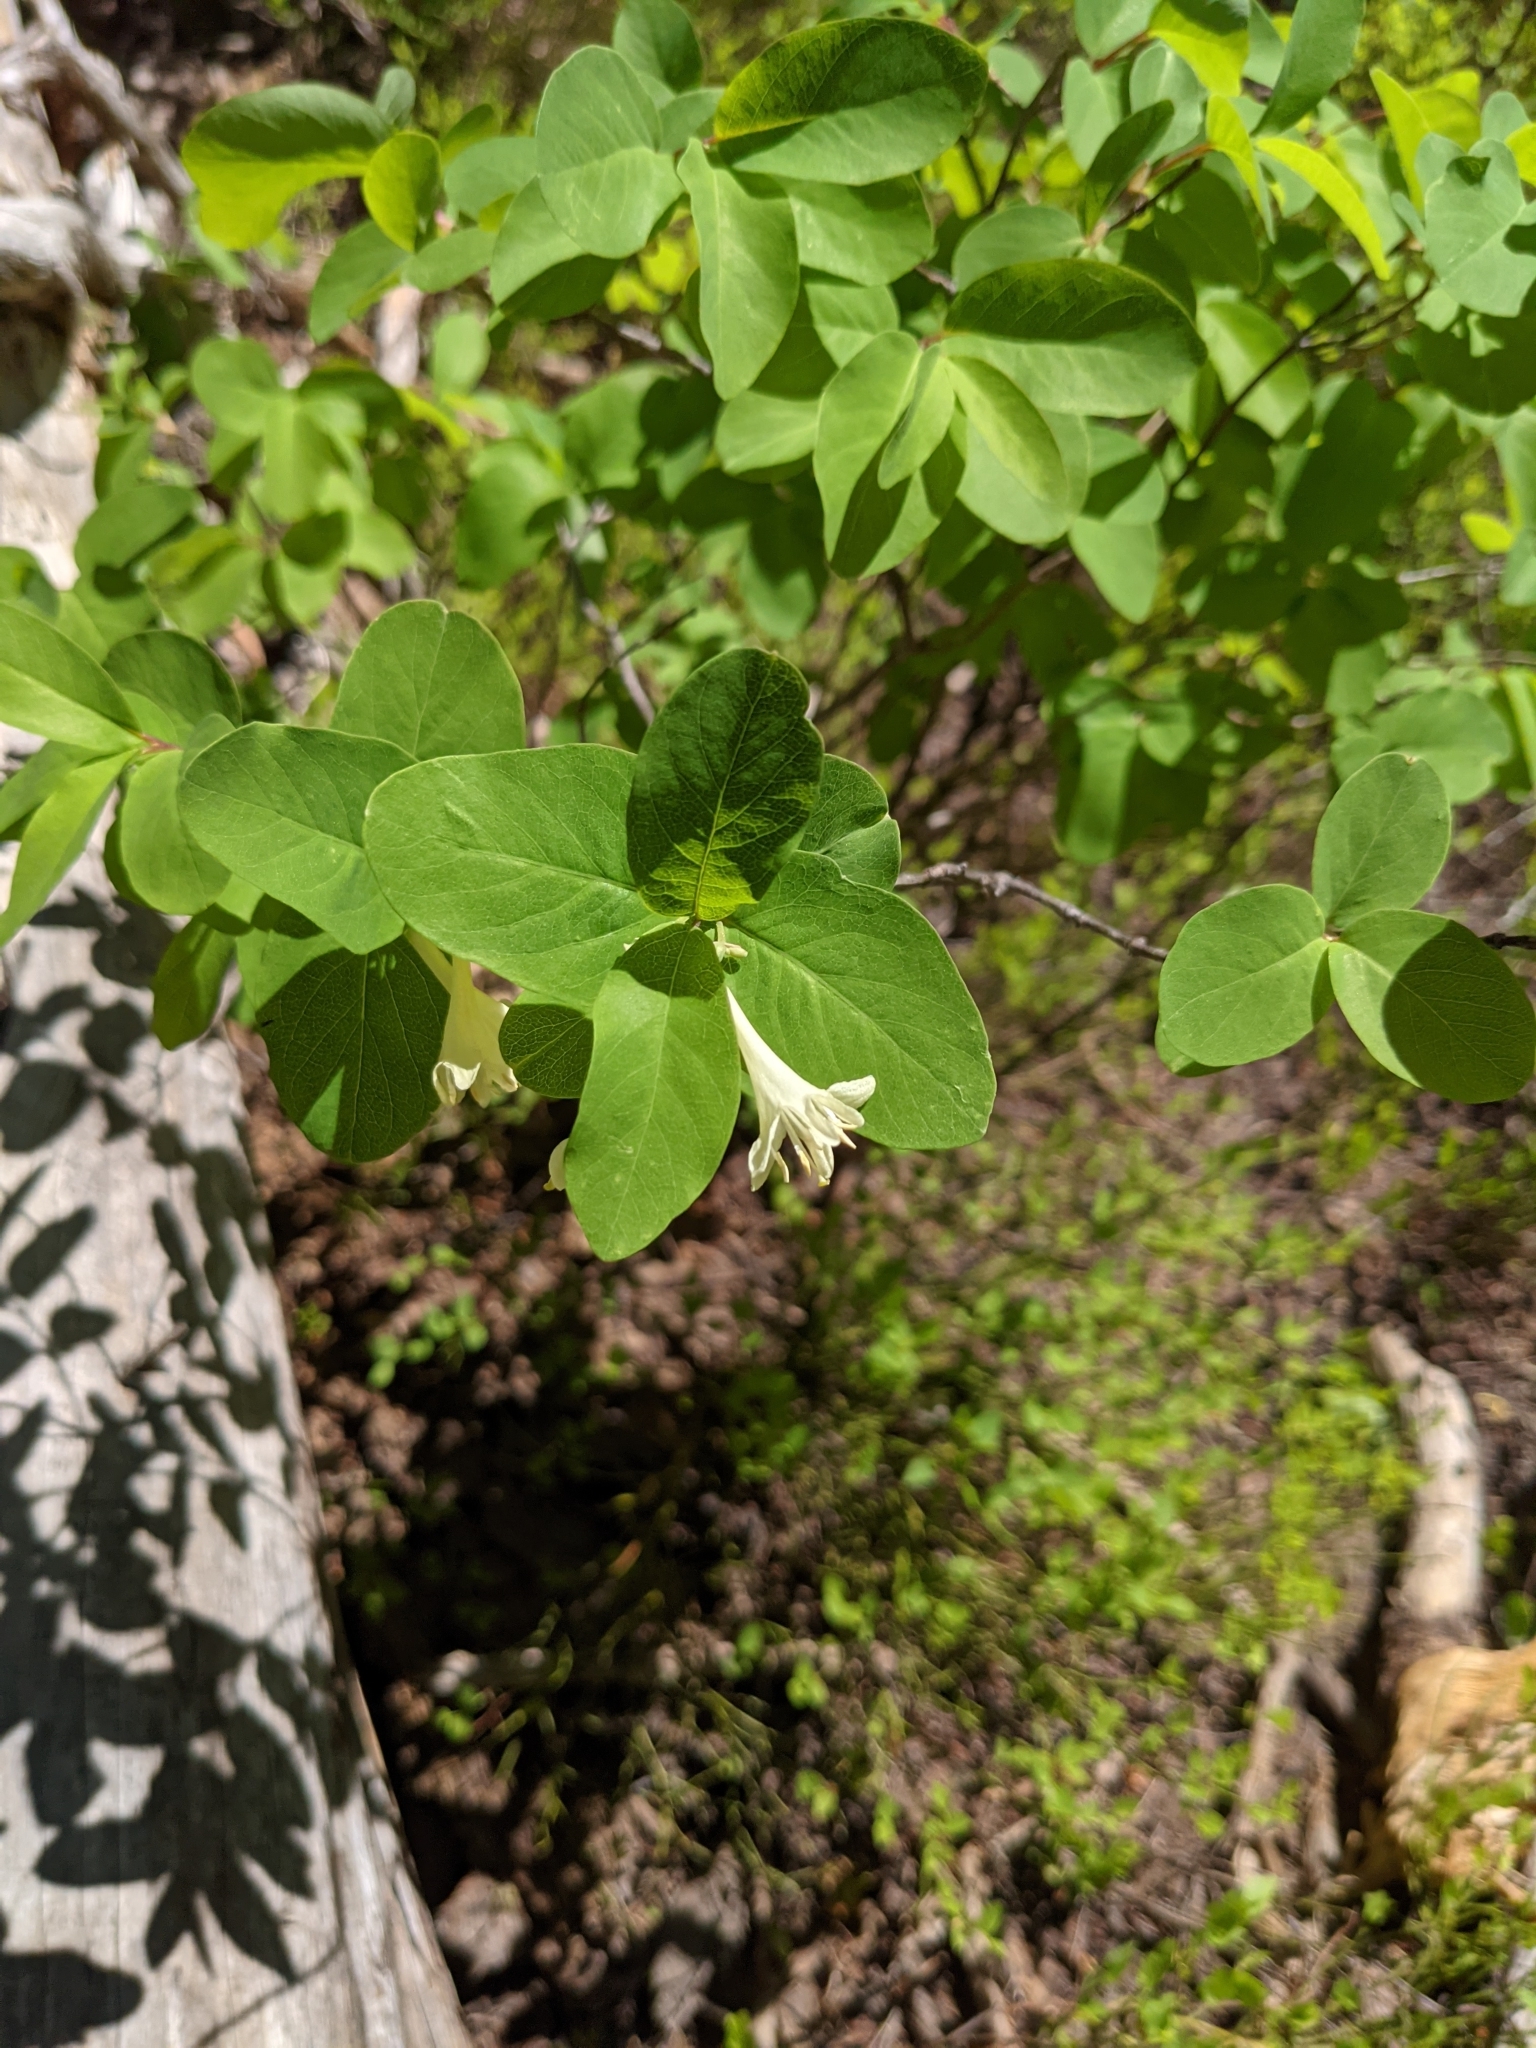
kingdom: Plantae
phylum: Tracheophyta
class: Magnoliopsida
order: Dipsacales
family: Caprifoliaceae
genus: Lonicera
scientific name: Lonicera utahensis
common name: Utah honeysuckle
